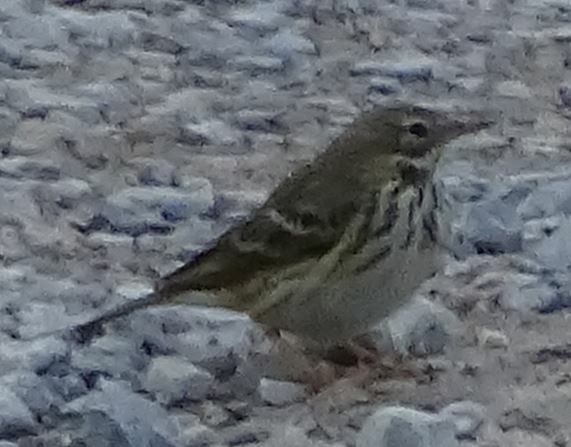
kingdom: Animalia
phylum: Chordata
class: Aves
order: Passeriformes
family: Motacillidae
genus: Anthus
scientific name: Anthus pratensis
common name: Meadow pipit
